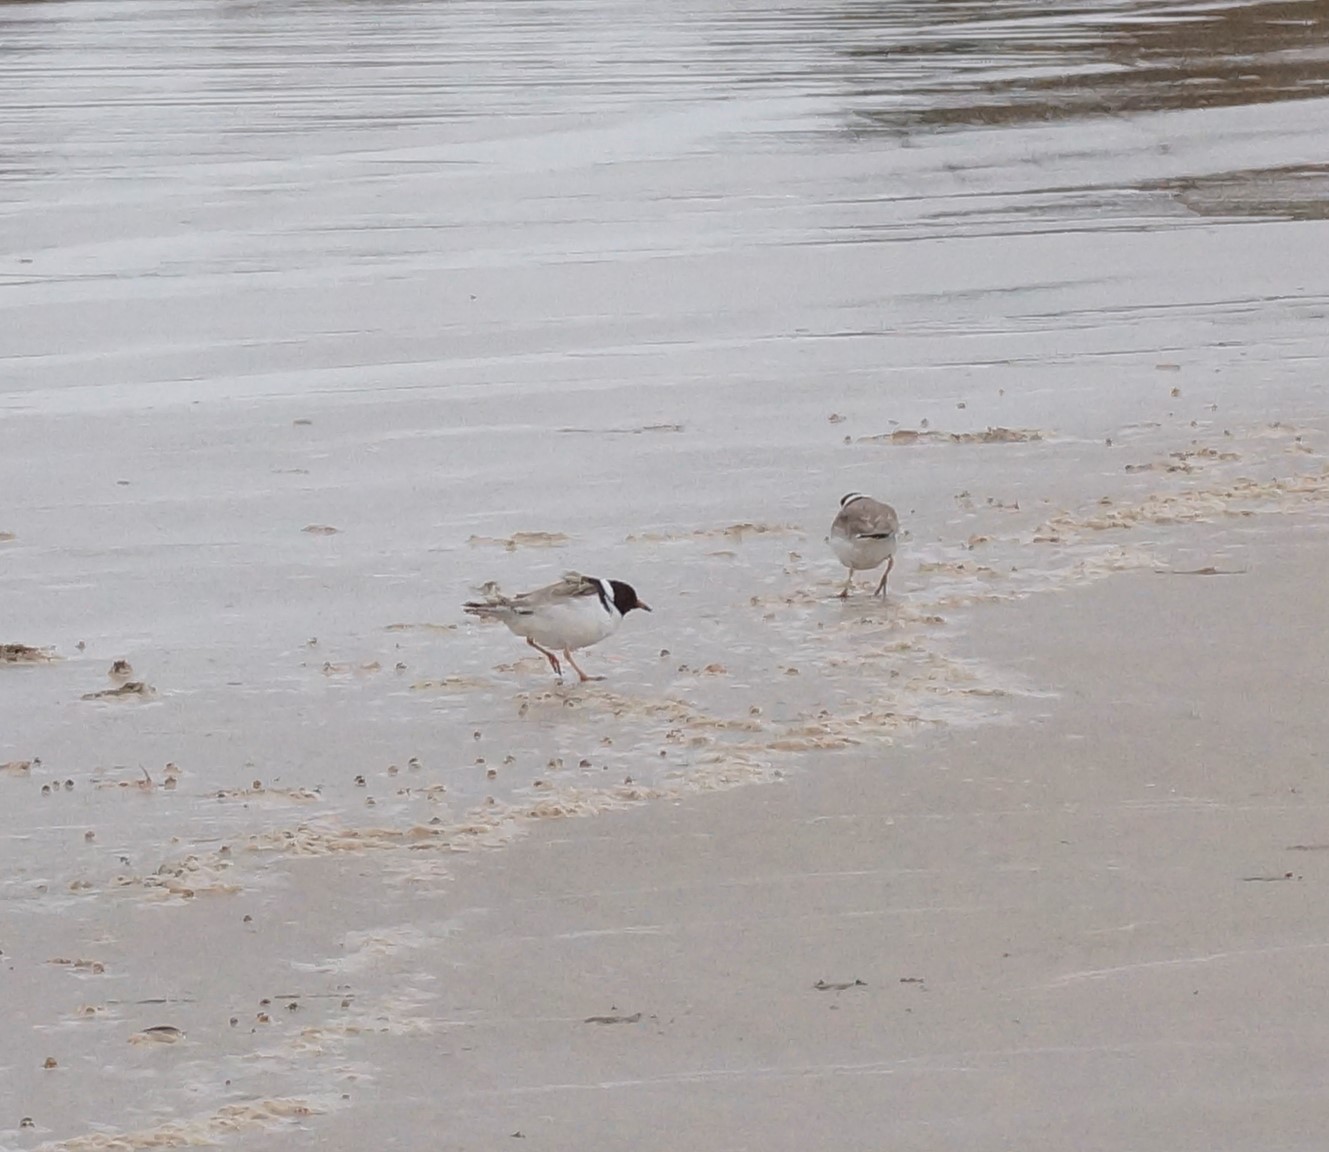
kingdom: Animalia
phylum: Chordata
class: Aves
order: Charadriiformes
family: Charadriidae
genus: Thinornis
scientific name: Thinornis cucullatus
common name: Hooded dotterel
